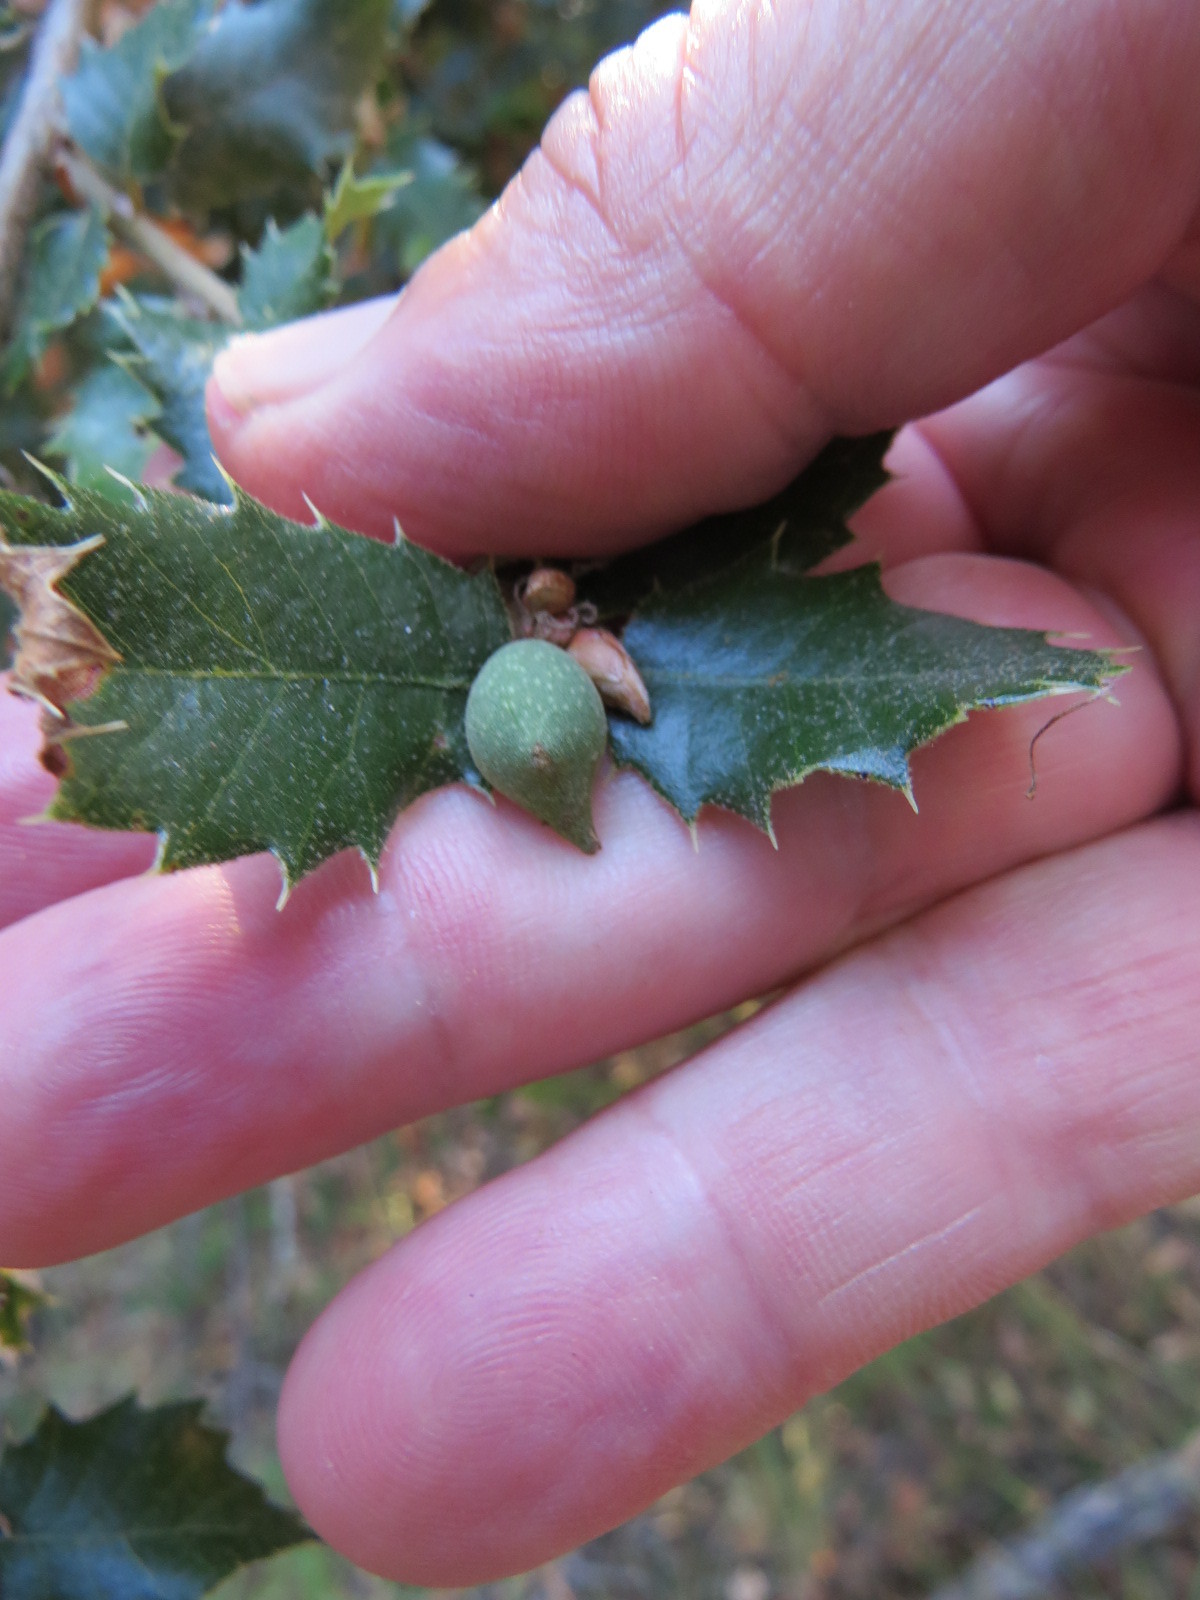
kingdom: Animalia
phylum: Arthropoda
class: Insecta
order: Hymenoptera
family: Cynipidae
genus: Heteroecus
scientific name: Heteroecus pacificus
